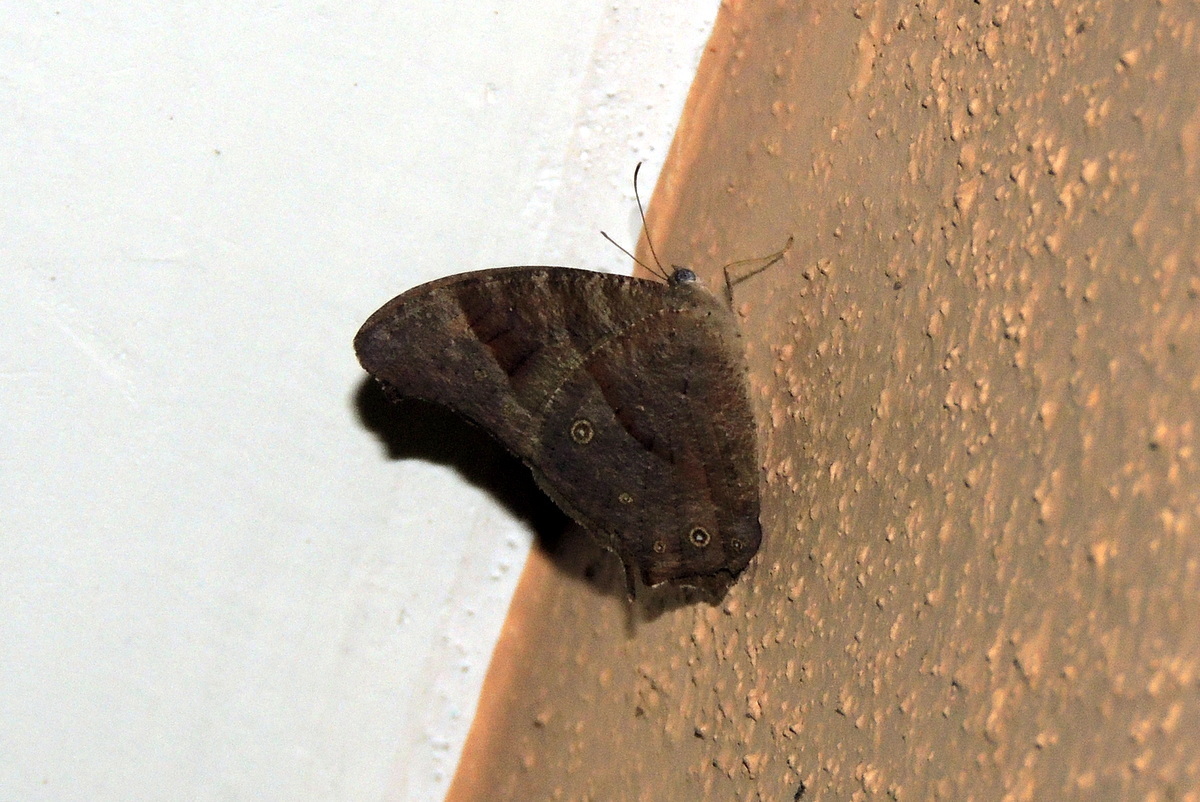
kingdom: Animalia
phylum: Arthropoda
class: Insecta
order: Lepidoptera
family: Nymphalidae
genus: Melanitis
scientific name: Melanitis leda
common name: Twilight brown
